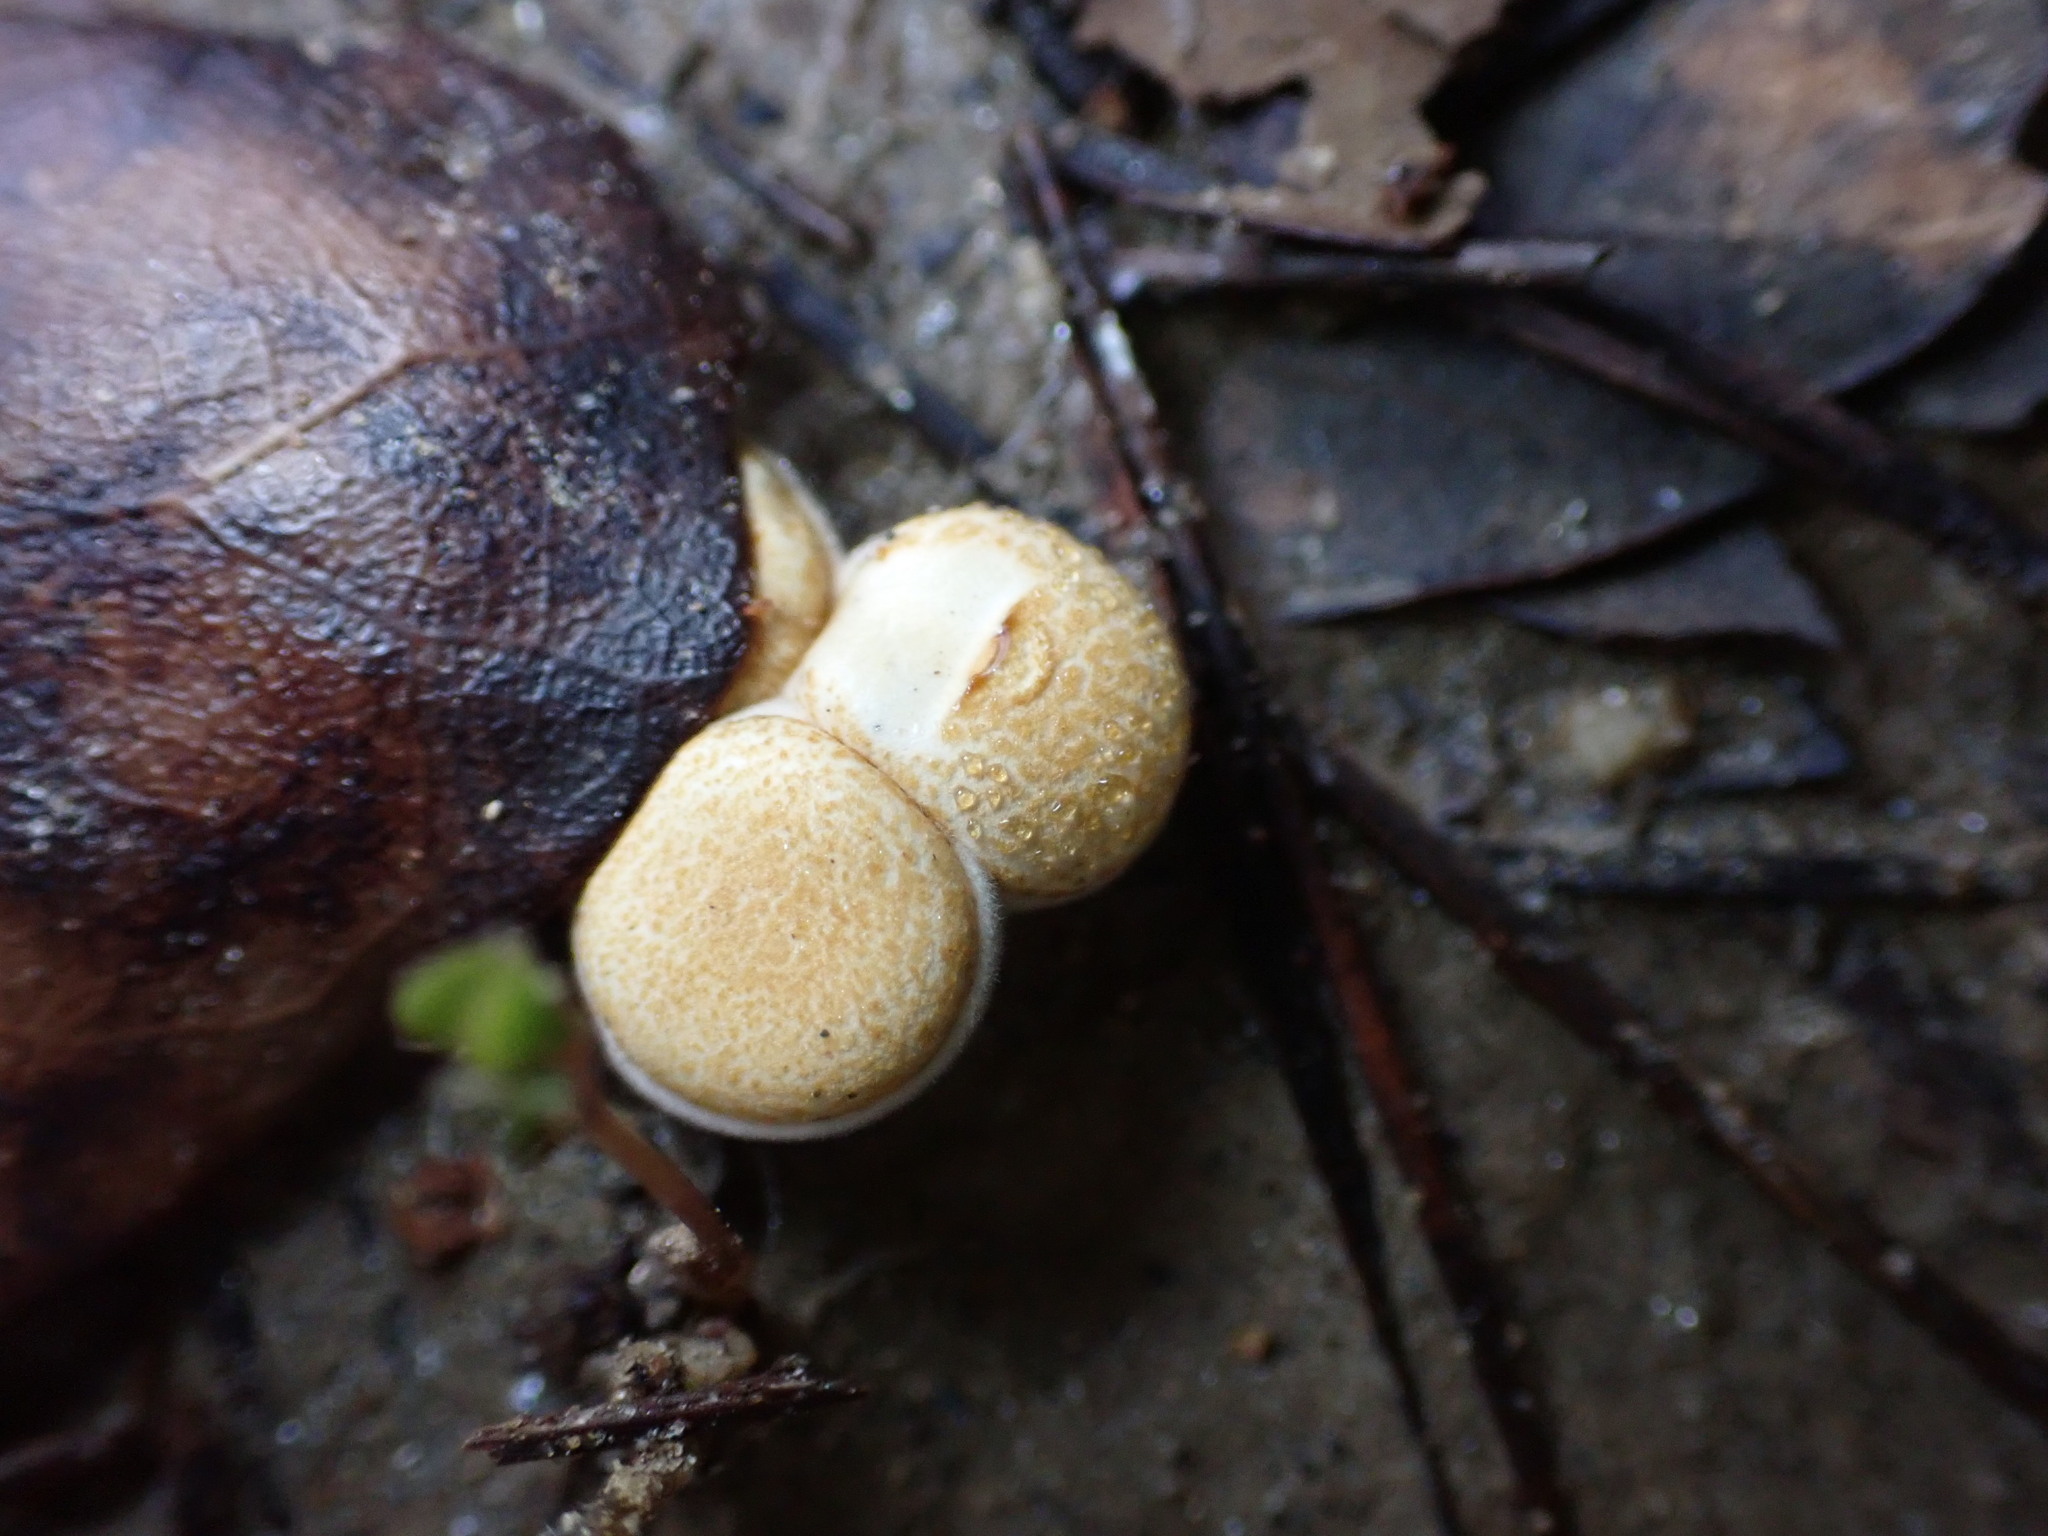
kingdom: Fungi
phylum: Basidiomycota
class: Agaricomycetes
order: Agaricales
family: Nidulariaceae
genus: Crucibulum
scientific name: Crucibulum laeve
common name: Common bird's nest
